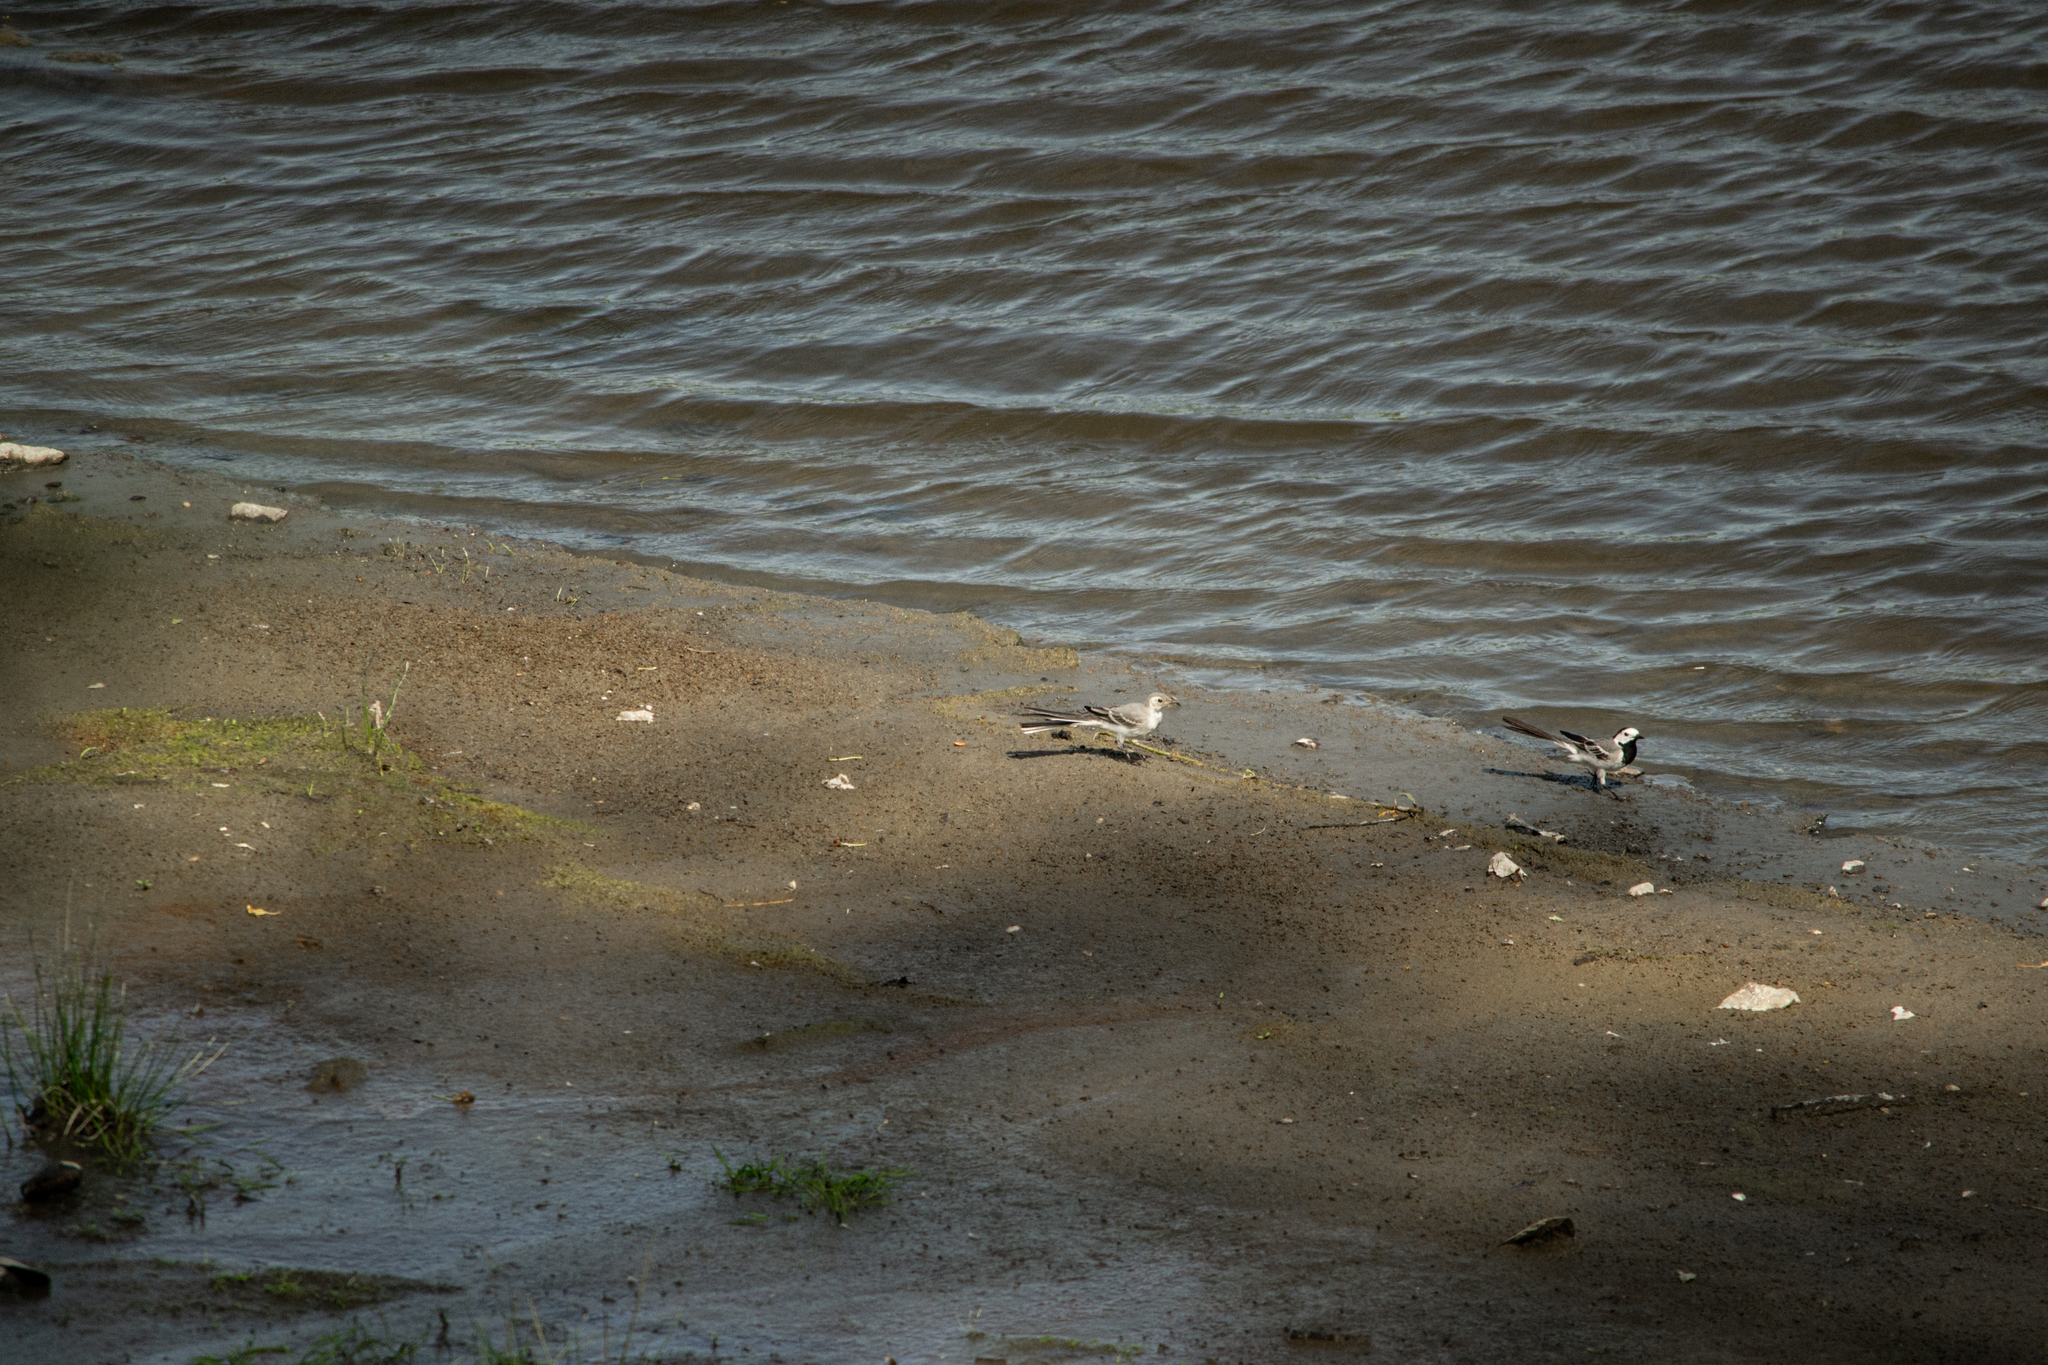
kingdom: Animalia
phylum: Chordata
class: Aves
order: Passeriformes
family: Motacillidae
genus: Motacilla
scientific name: Motacilla alba
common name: White wagtail
